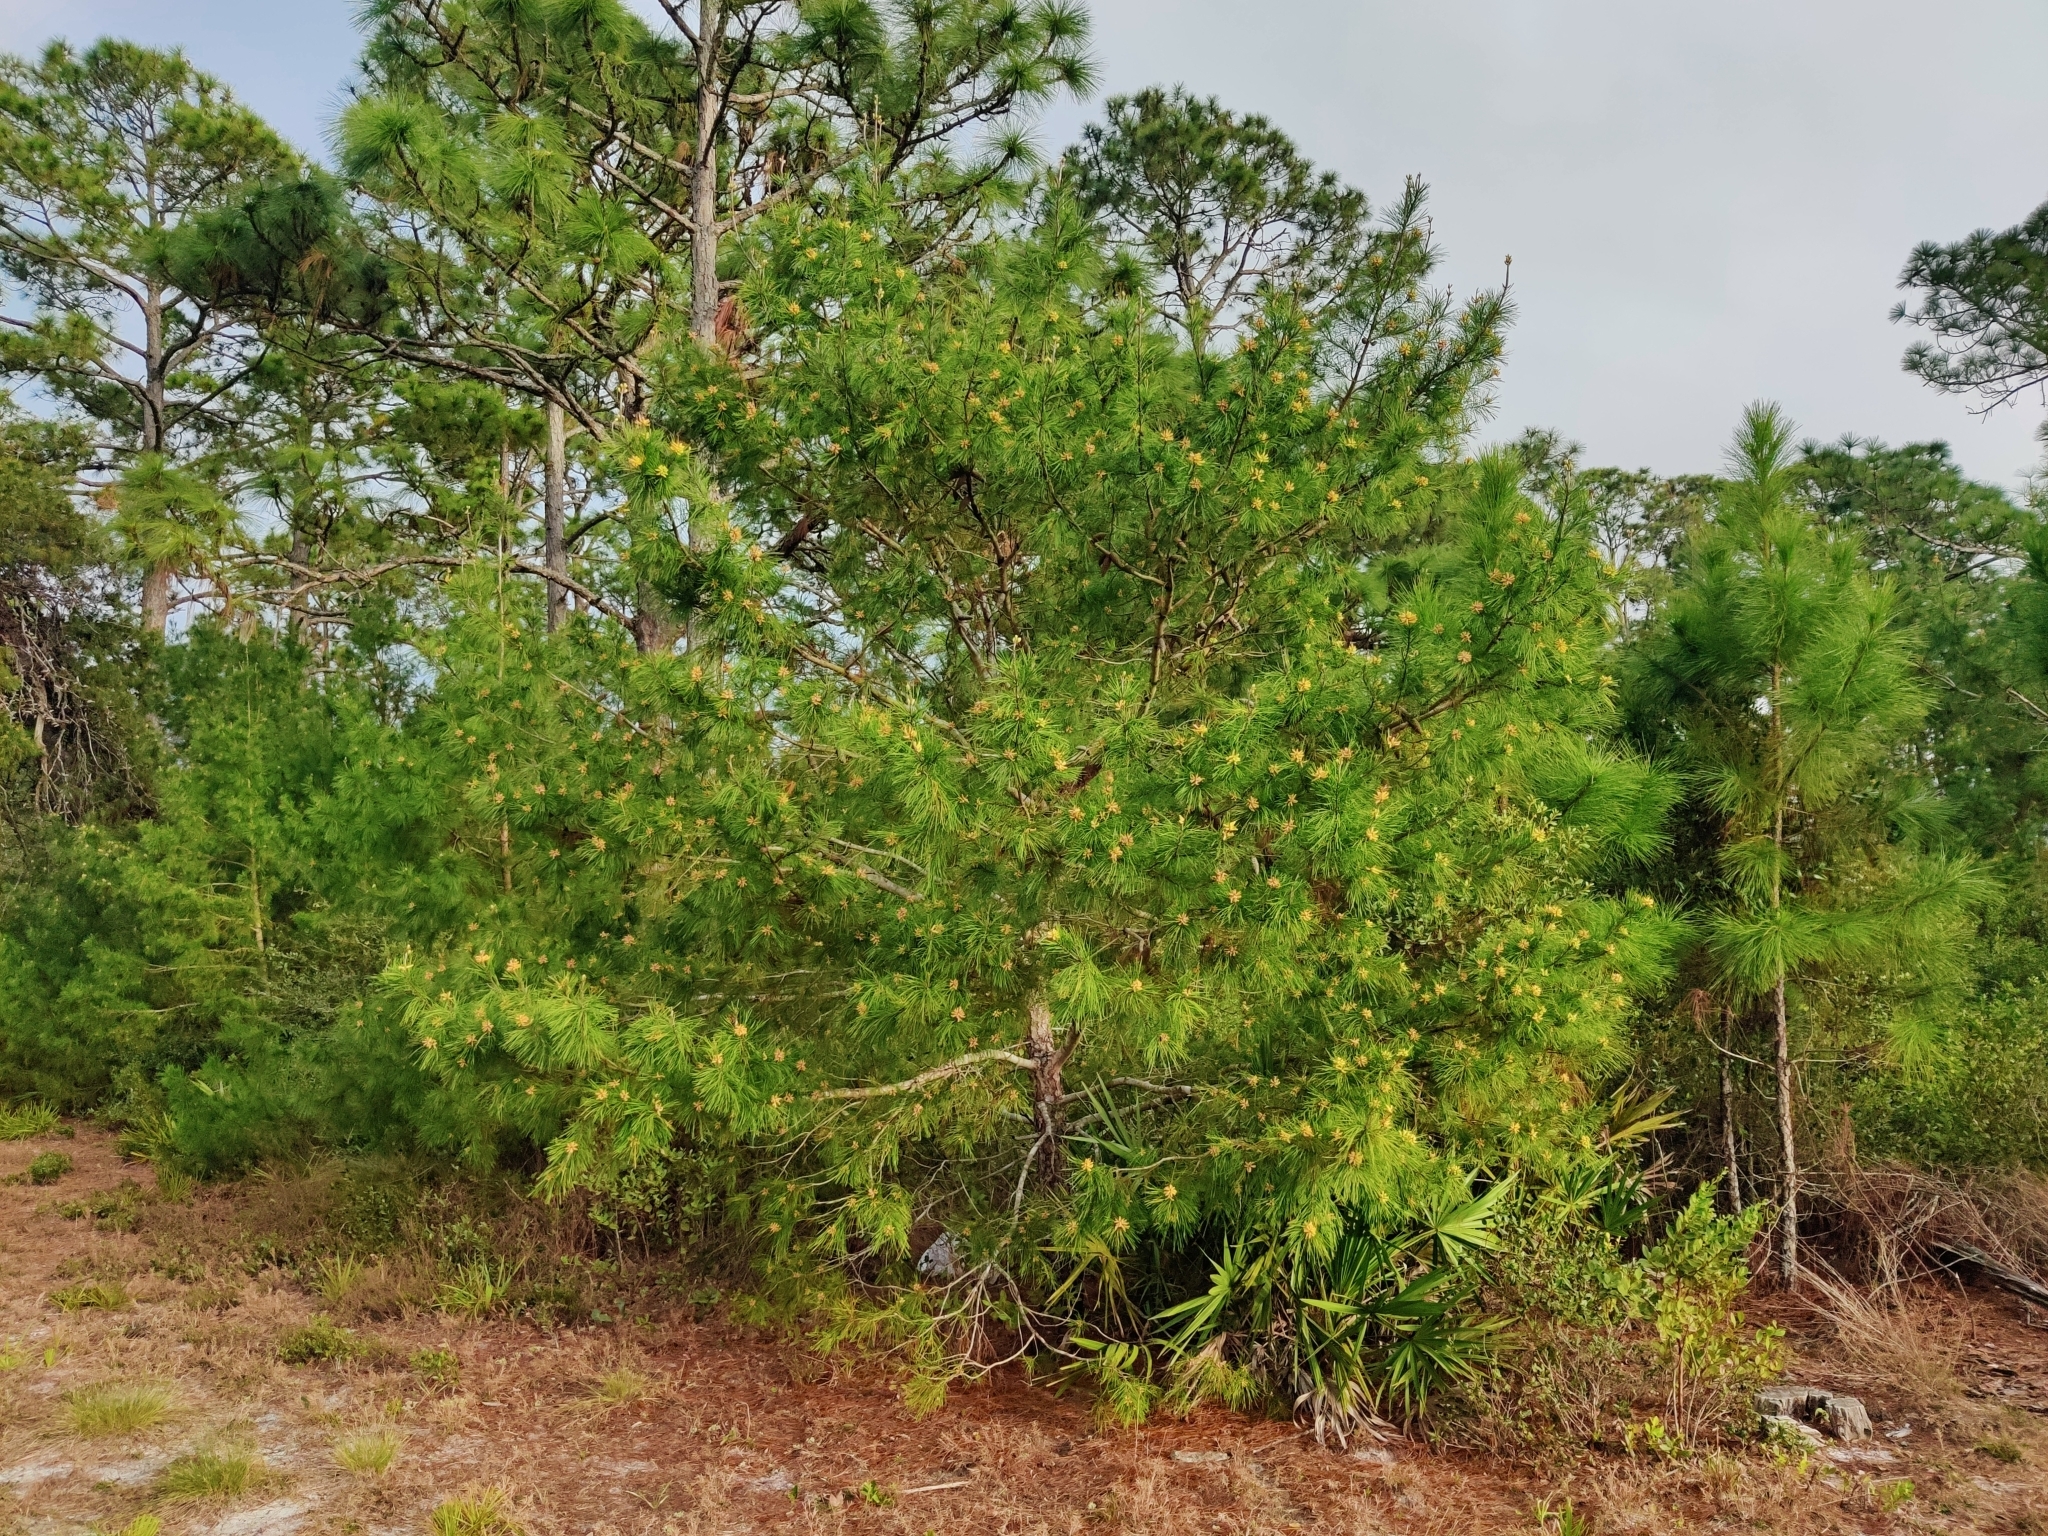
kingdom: Plantae
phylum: Tracheophyta
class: Pinopsida
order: Pinales
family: Pinaceae
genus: Pinus
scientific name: Pinus clausa
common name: Sand pine
